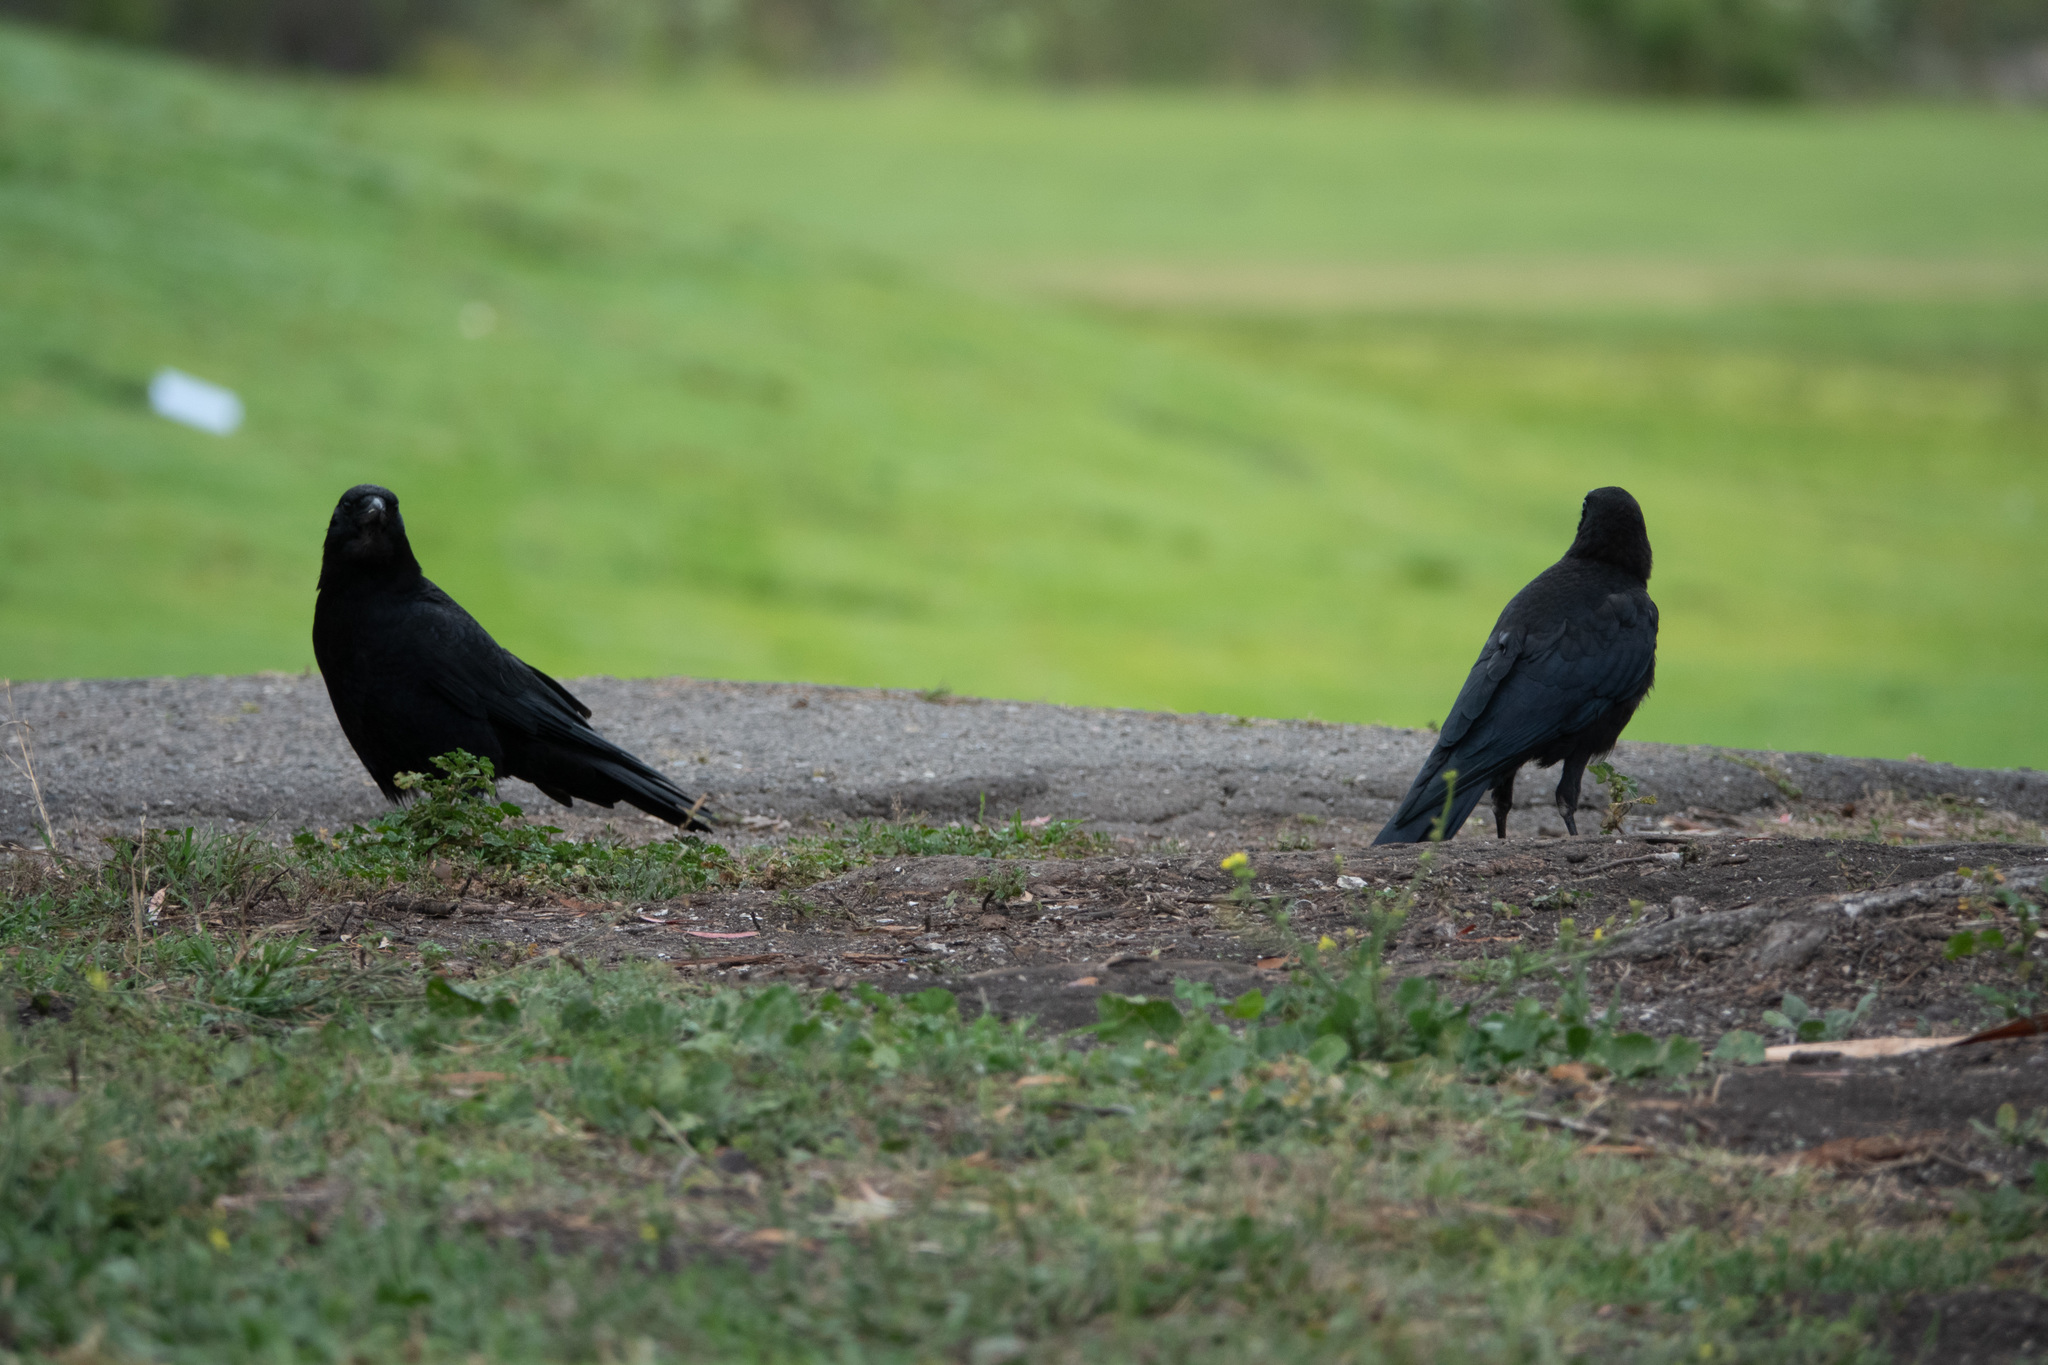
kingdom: Animalia
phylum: Chordata
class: Aves
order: Passeriformes
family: Corvidae
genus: Corvus
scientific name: Corvus brachyrhynchos
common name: American crow
